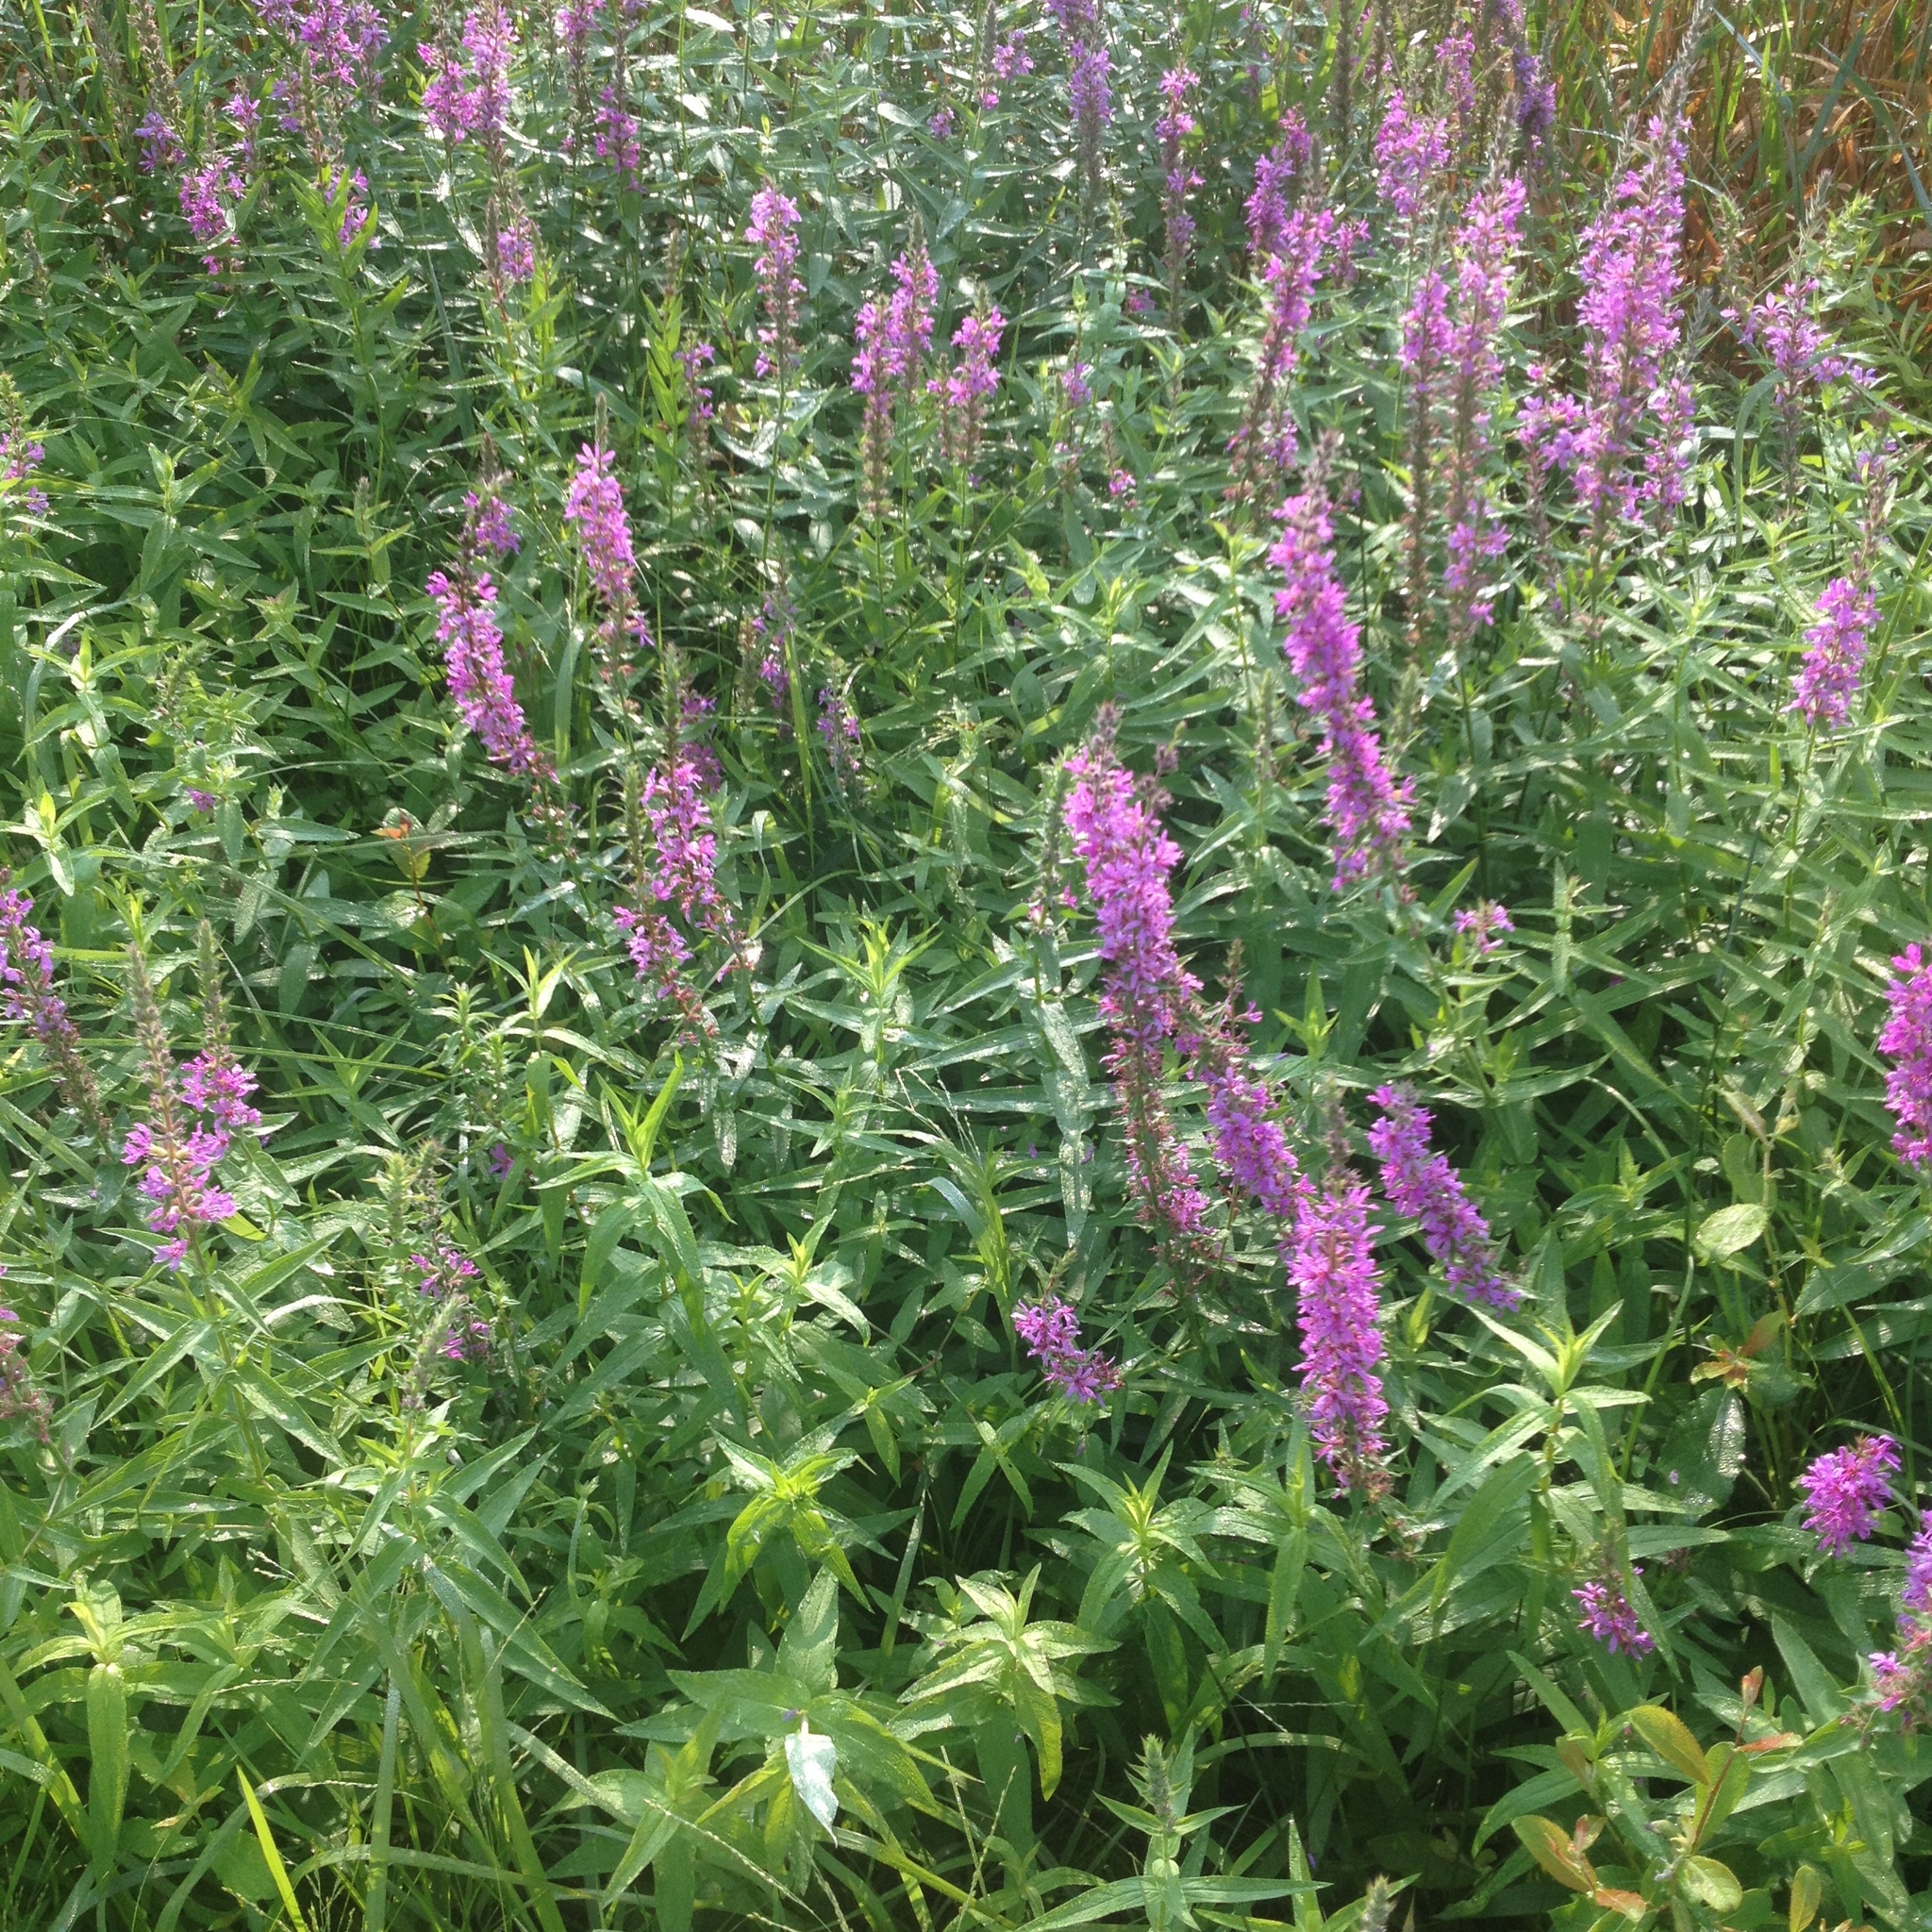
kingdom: Plantae
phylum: Tracheophyta
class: Magnoliopsida
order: Myrtales
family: Lythraceae
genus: Lythrum
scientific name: Lythrum salicaria
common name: Purple loosestrife
